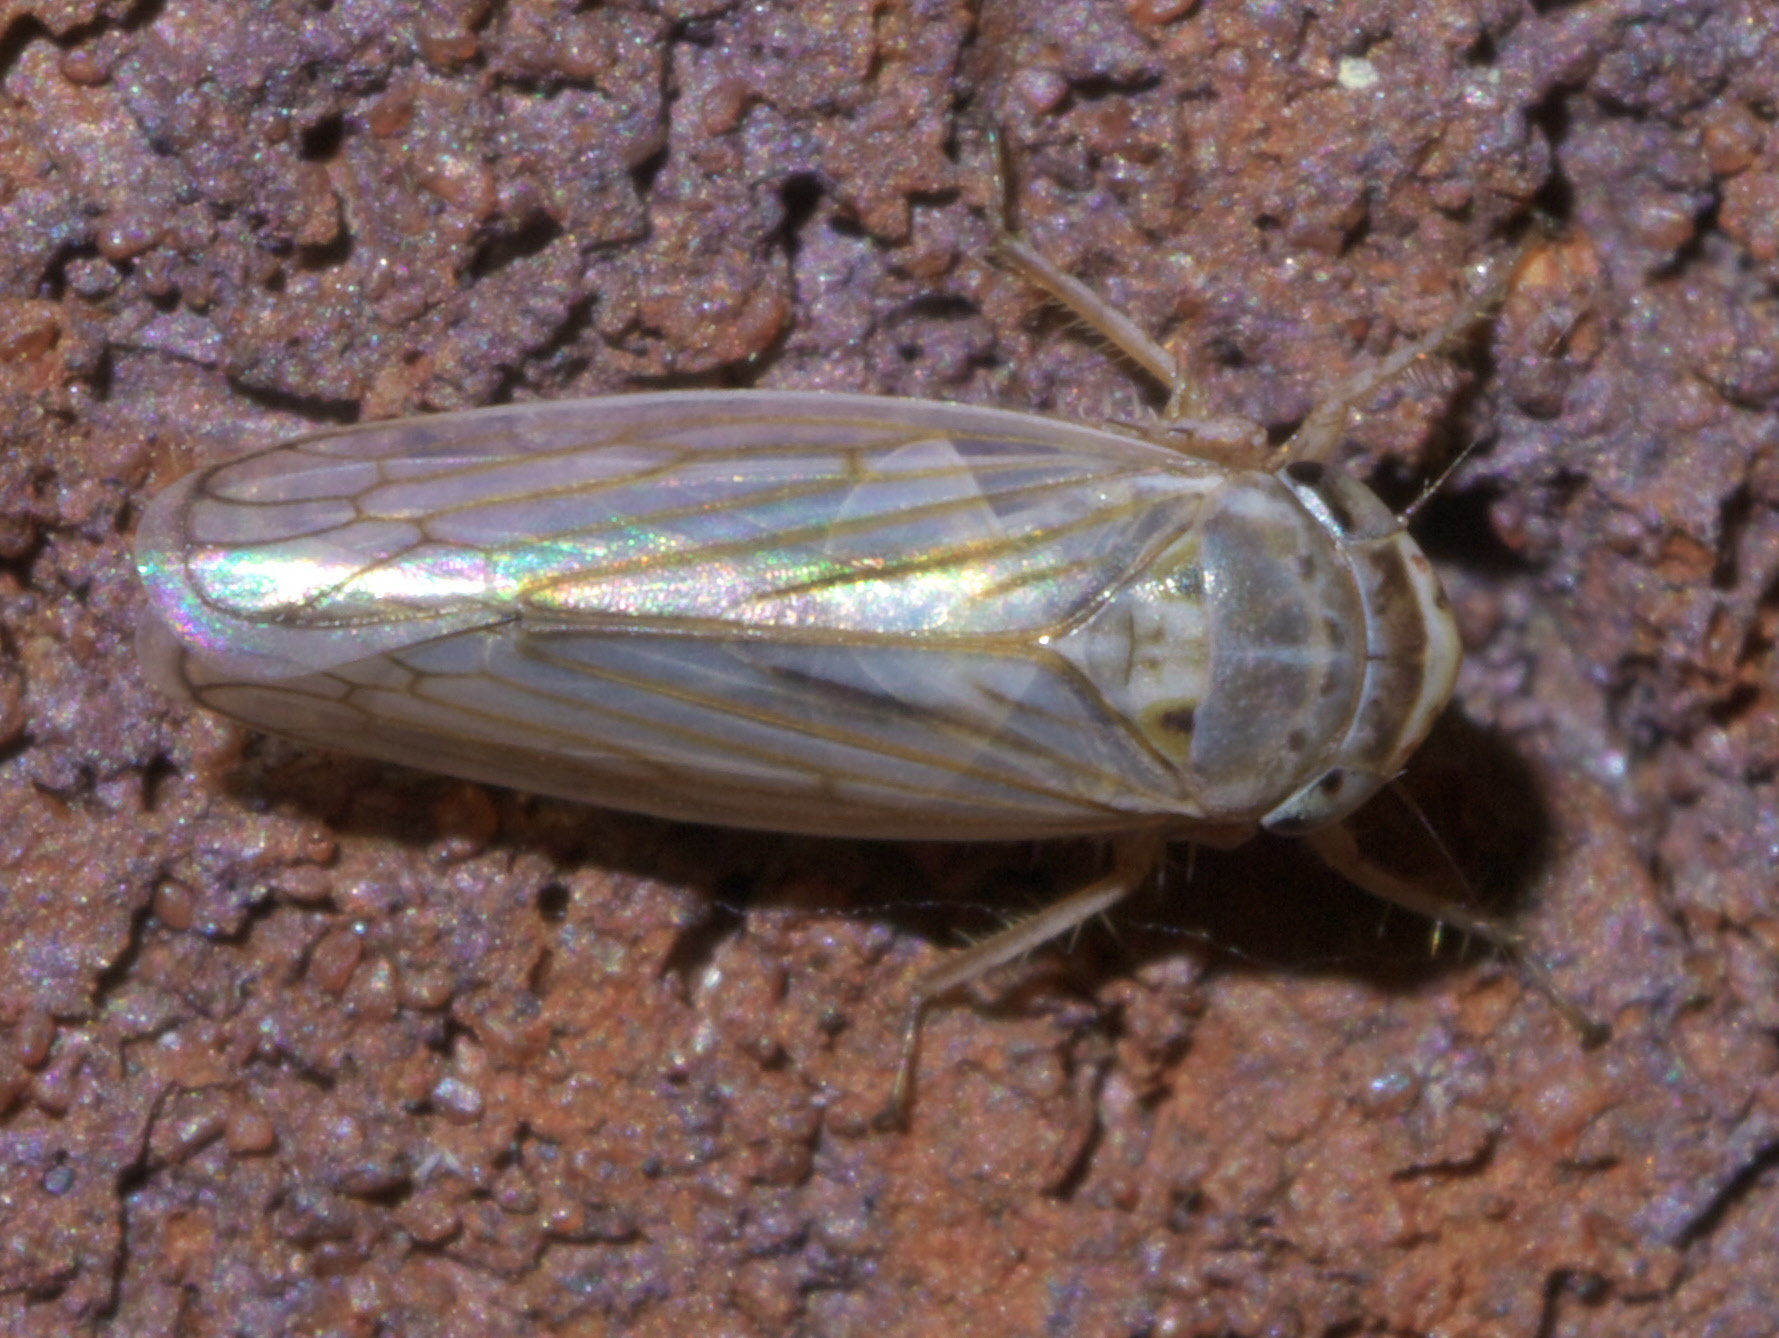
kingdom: Animalia
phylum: Arthropoda
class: Insecta
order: Hemiptera
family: Cicadellidae
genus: Exitianus
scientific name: Exitianus exitiosus
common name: Gray lawn leafhopper
